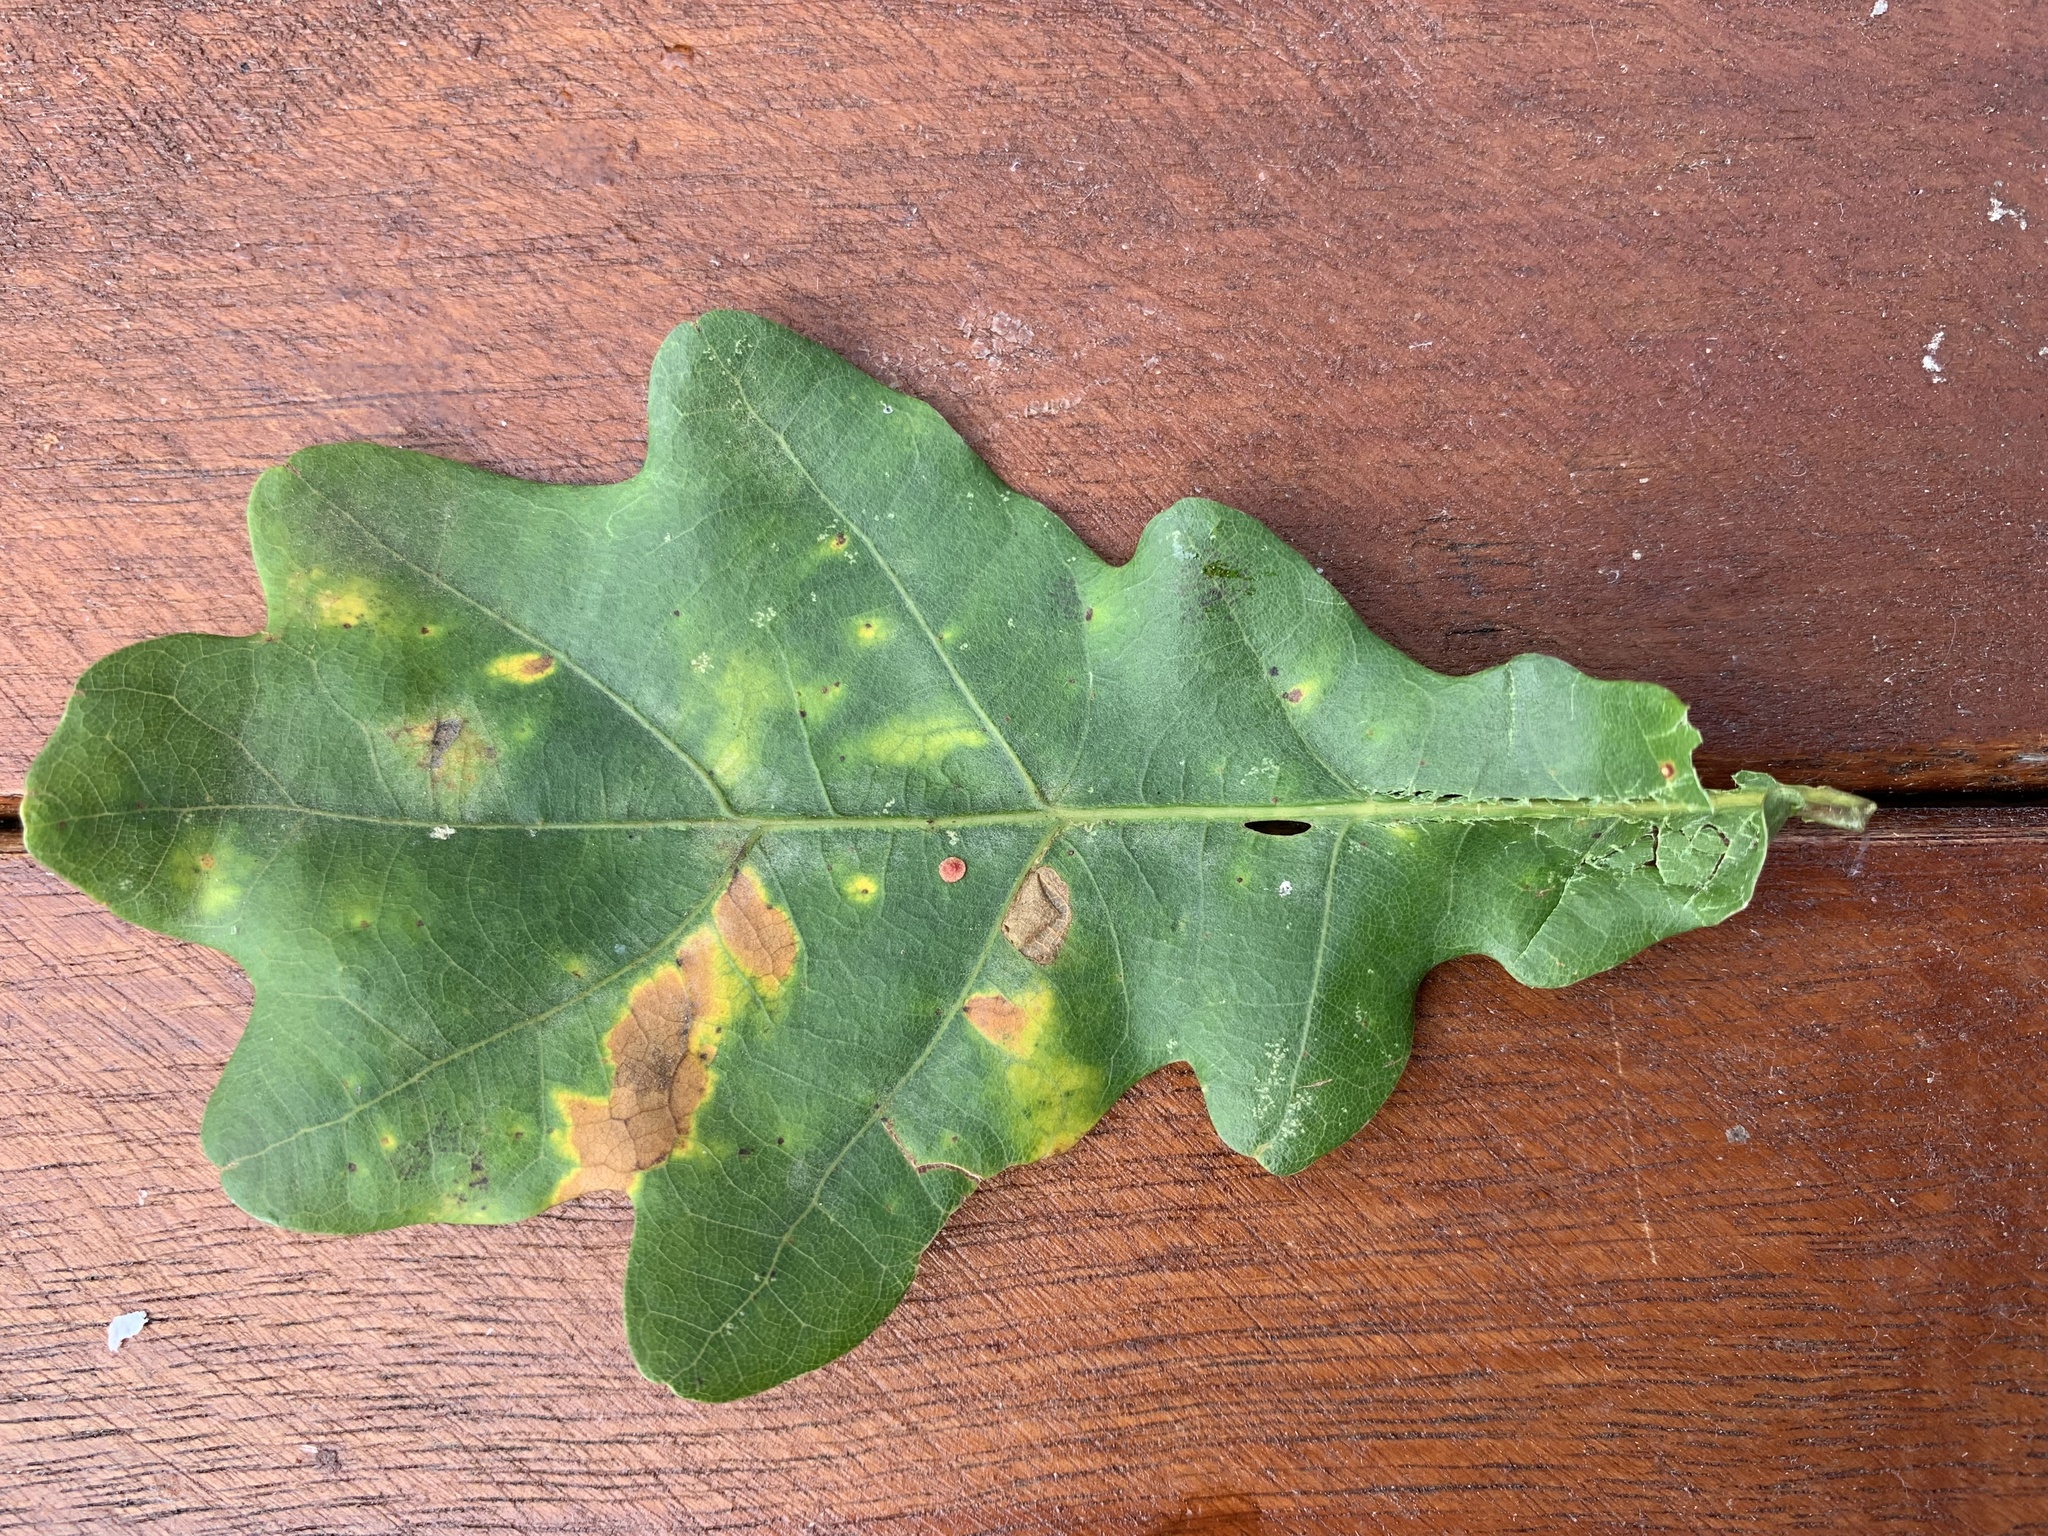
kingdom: Animalia
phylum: Arthropoda
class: Insecta
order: Hymenoptera
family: Cynipidae
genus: Neuroterus
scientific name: Neuroterus quercusbaccarum
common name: Common spangle gall
